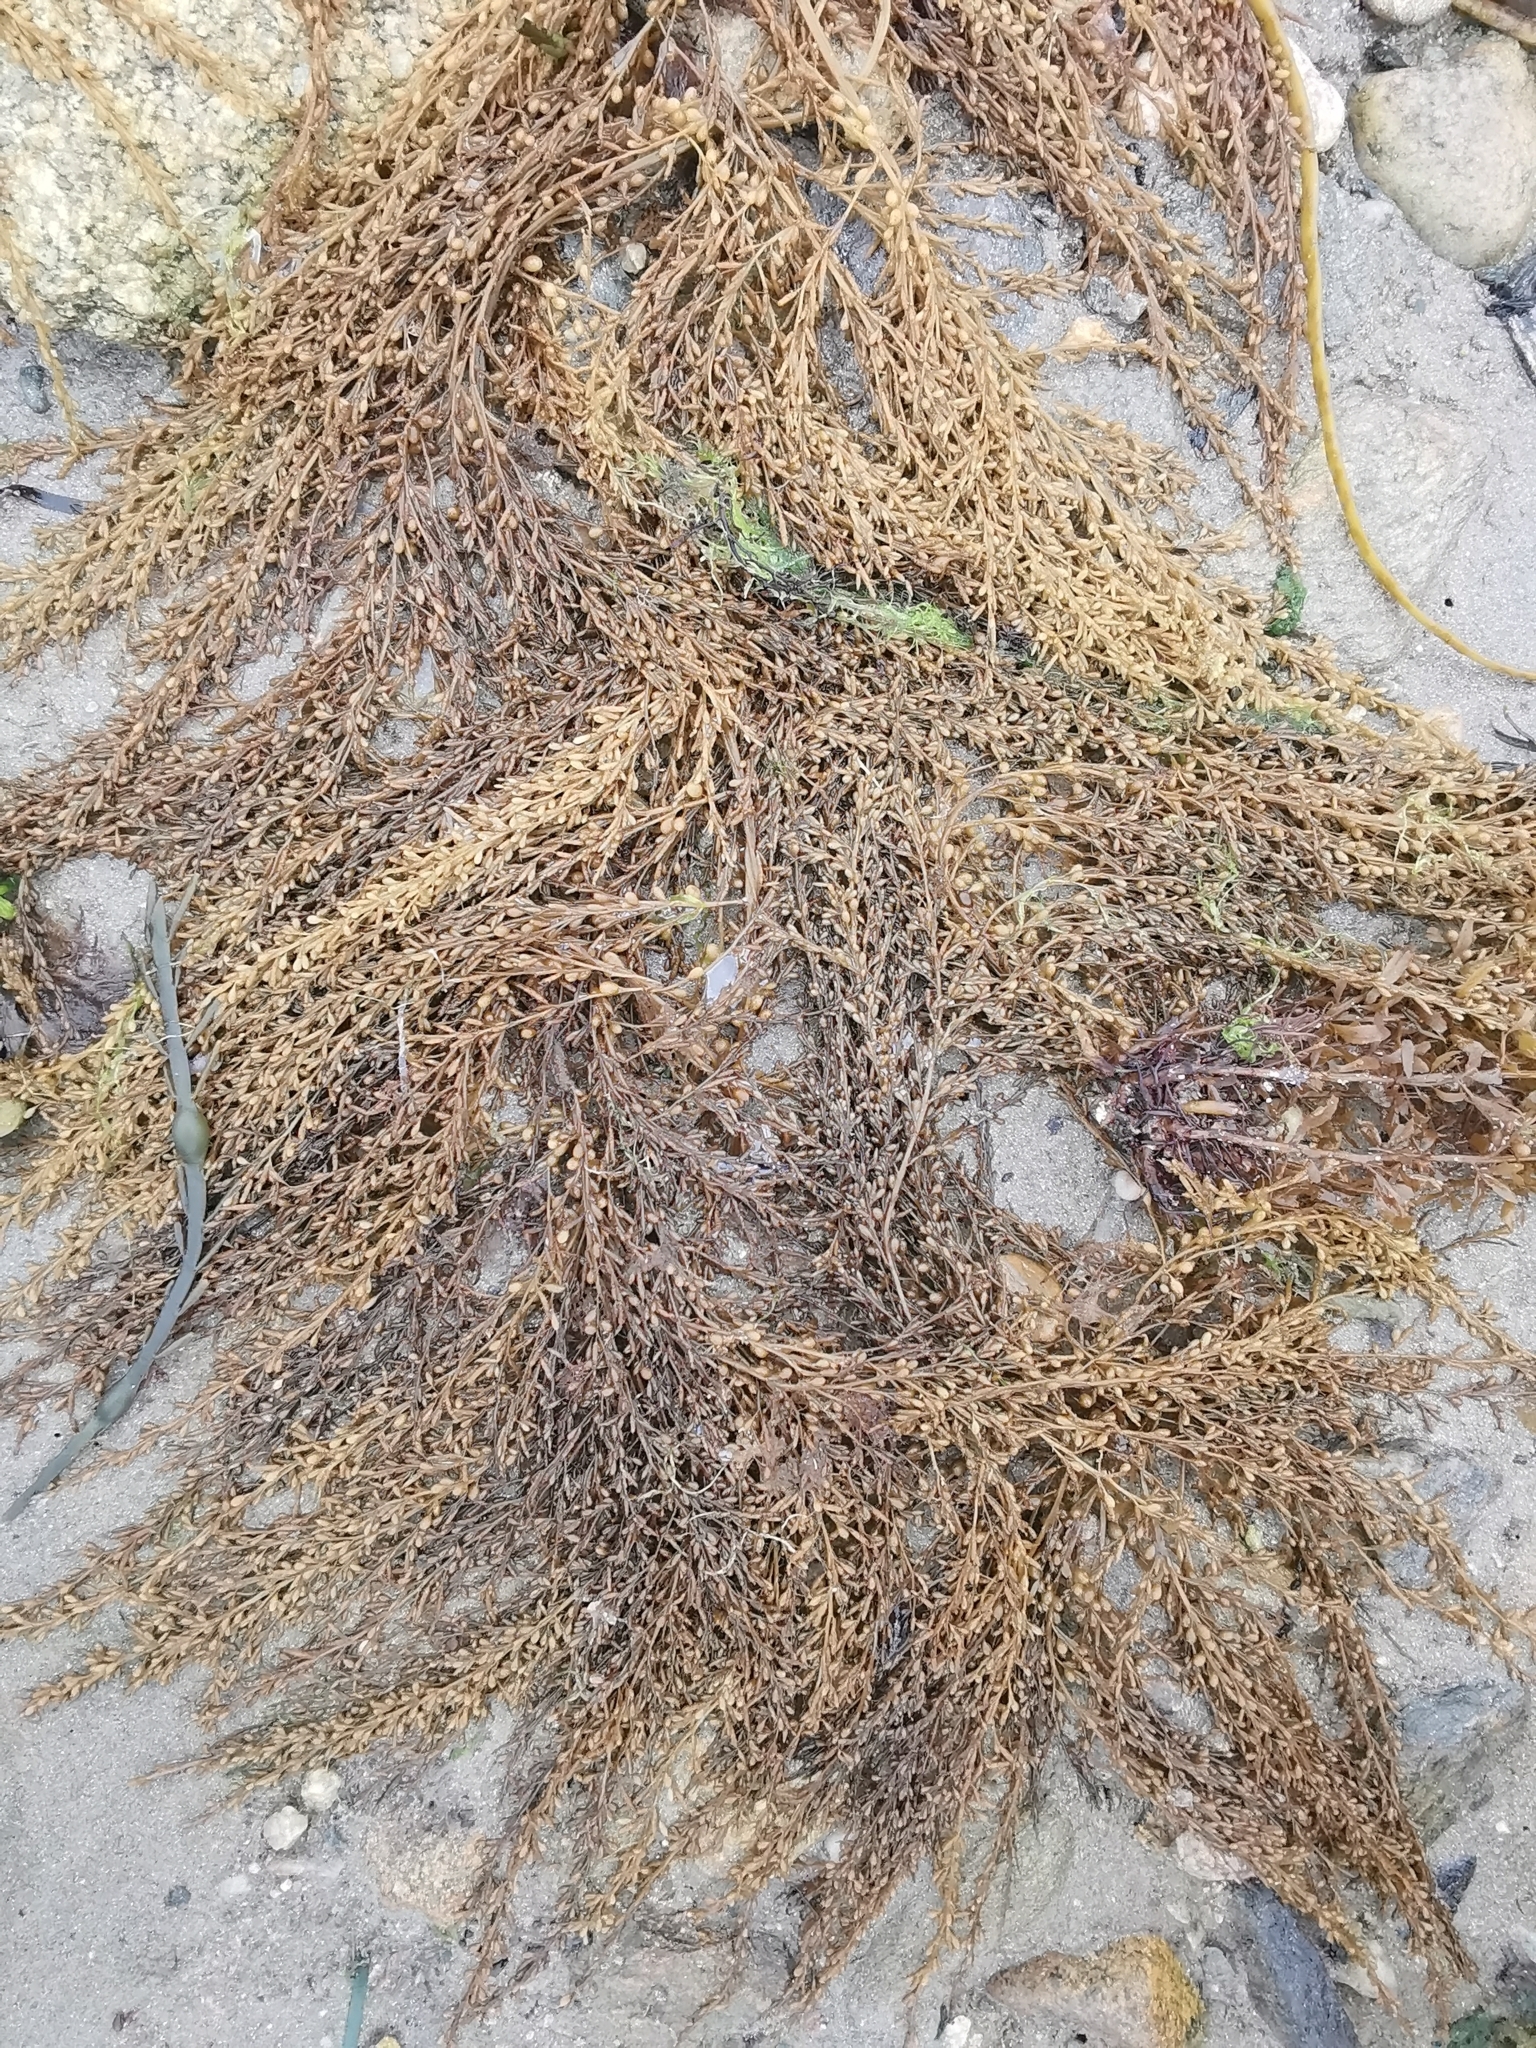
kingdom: Chromista
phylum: Ochrophyta
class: Phaeophyceae
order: Fucales
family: Sargassaceae
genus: Sargassum
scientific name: Sargassum muticum
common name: Japweed
